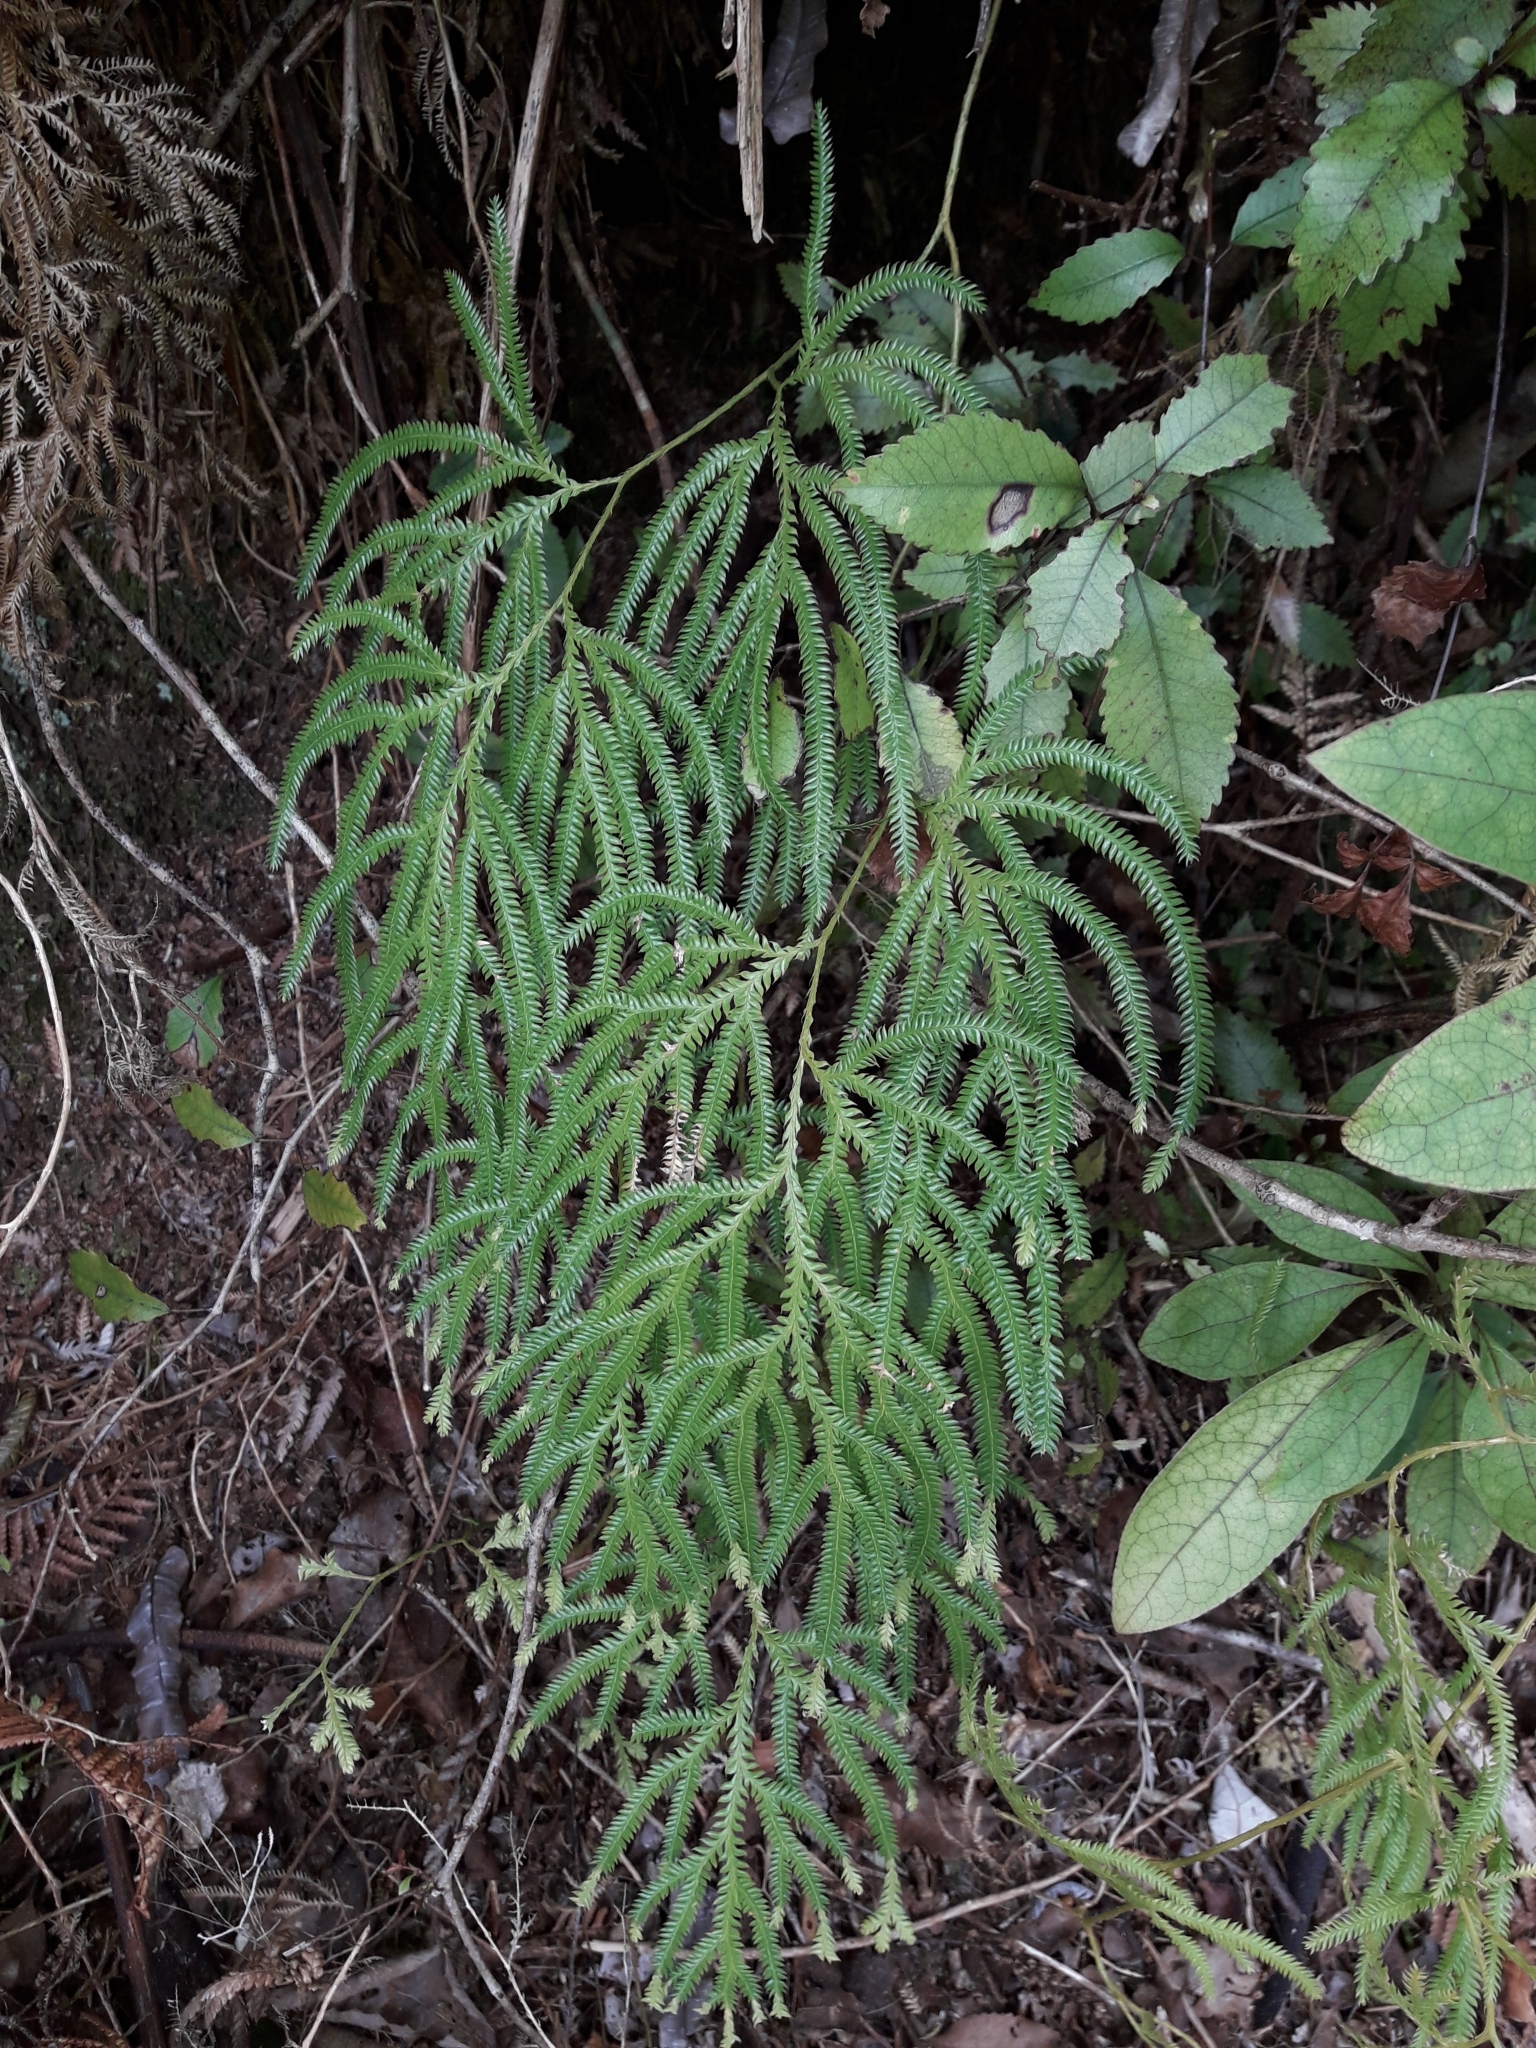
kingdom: Plantae
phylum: Tracheophyta
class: Lycopodiopsida
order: Lycopodiales
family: Lycopodiaceae
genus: Lycopodium
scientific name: Lycopodium volubile
